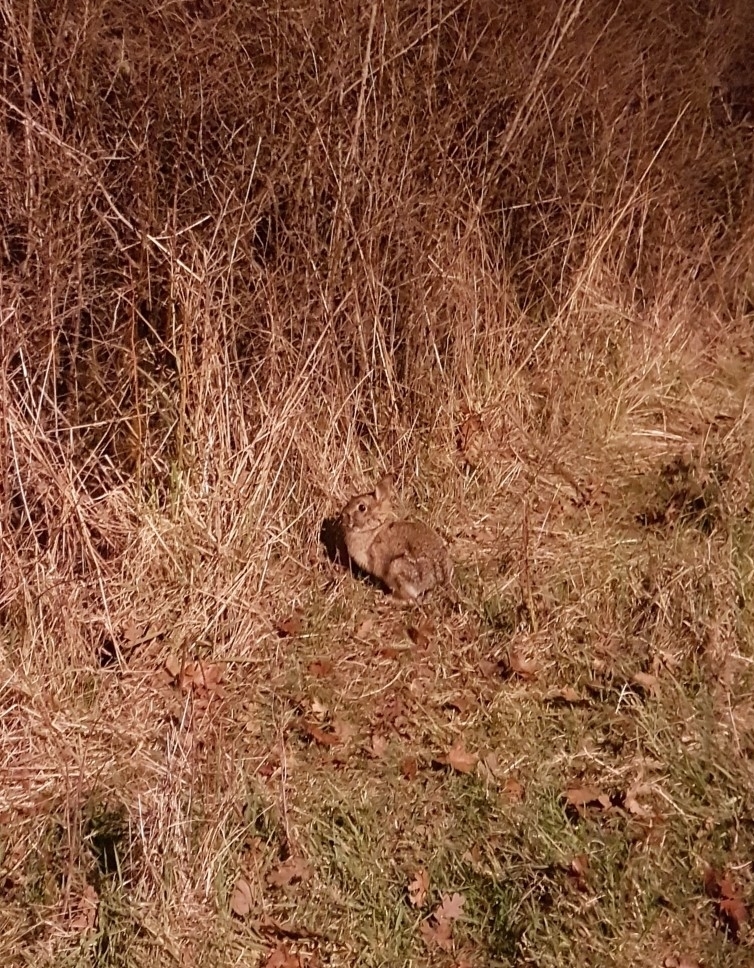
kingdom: Animalia
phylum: Chordata
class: Mammalia
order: Lagomorpha
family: Leporidae
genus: Sylvilagus
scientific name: Sylvilagus floridanus
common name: Eastern cottontail
